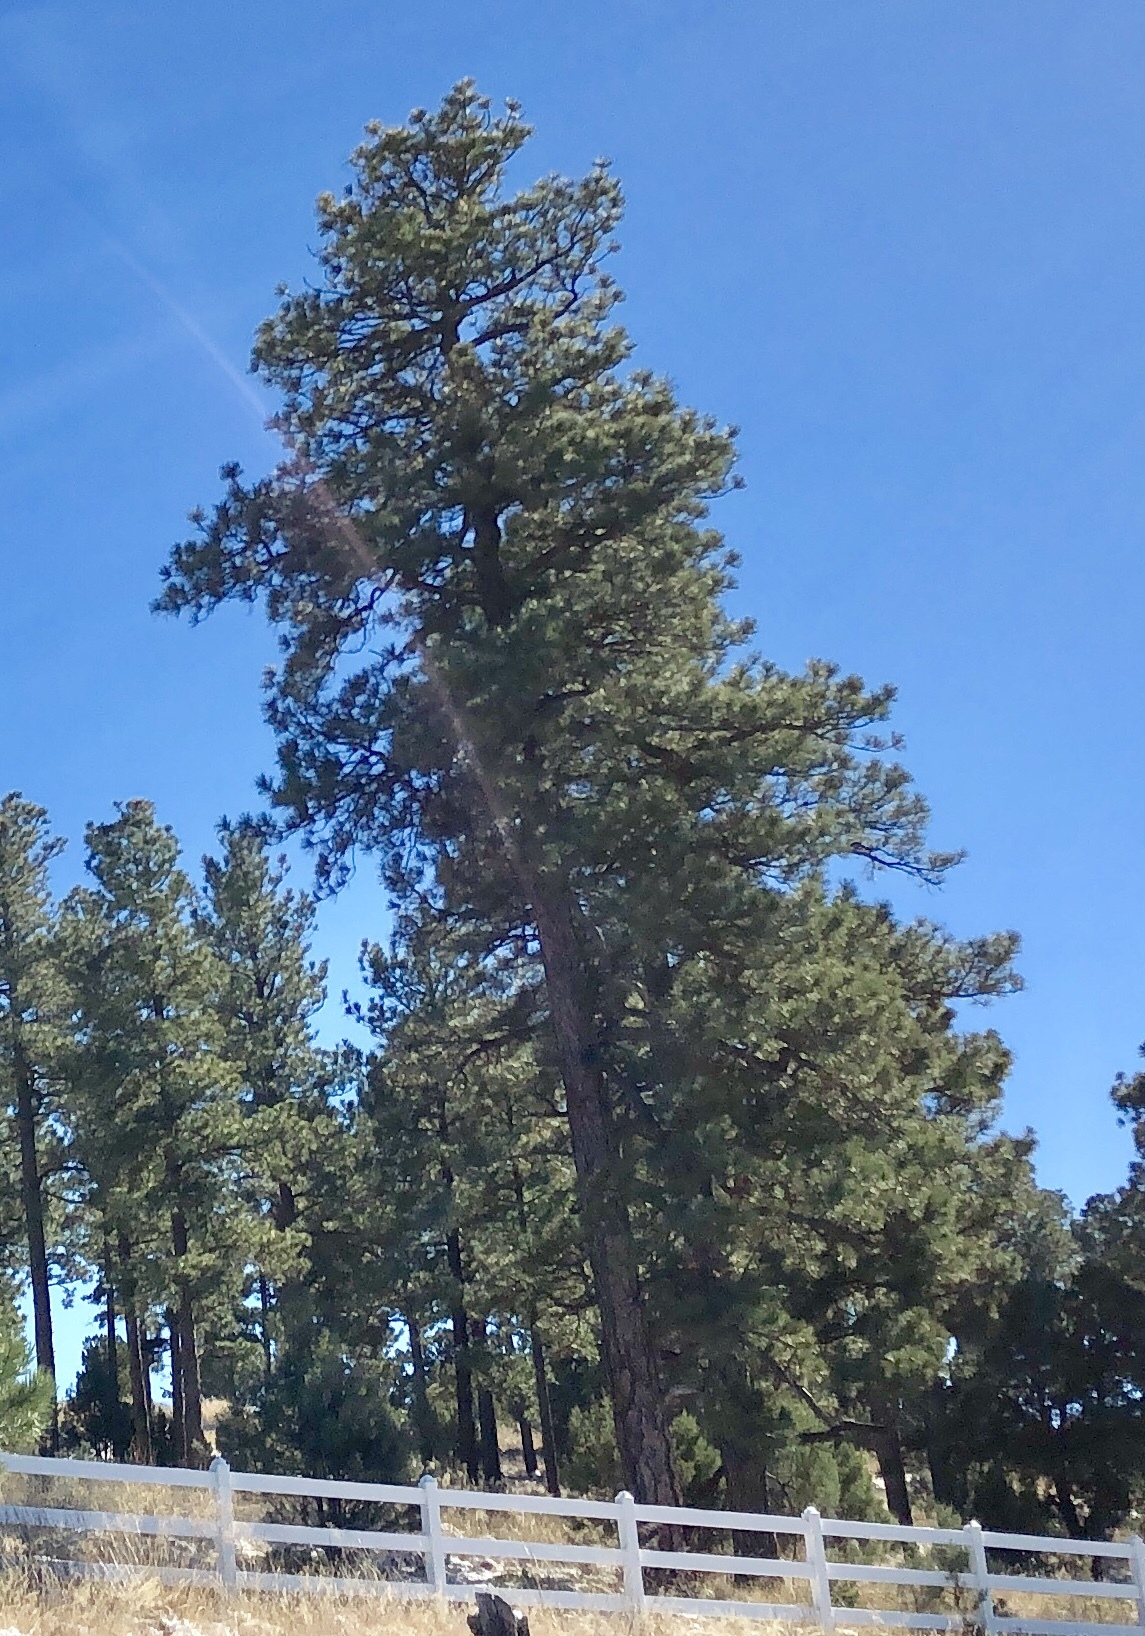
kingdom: Plantae
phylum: Tracheophyta
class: Pinopsida
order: Pinales
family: Pinaceae
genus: Pinus
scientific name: Pinus ponderosa
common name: Western yellow-pine
